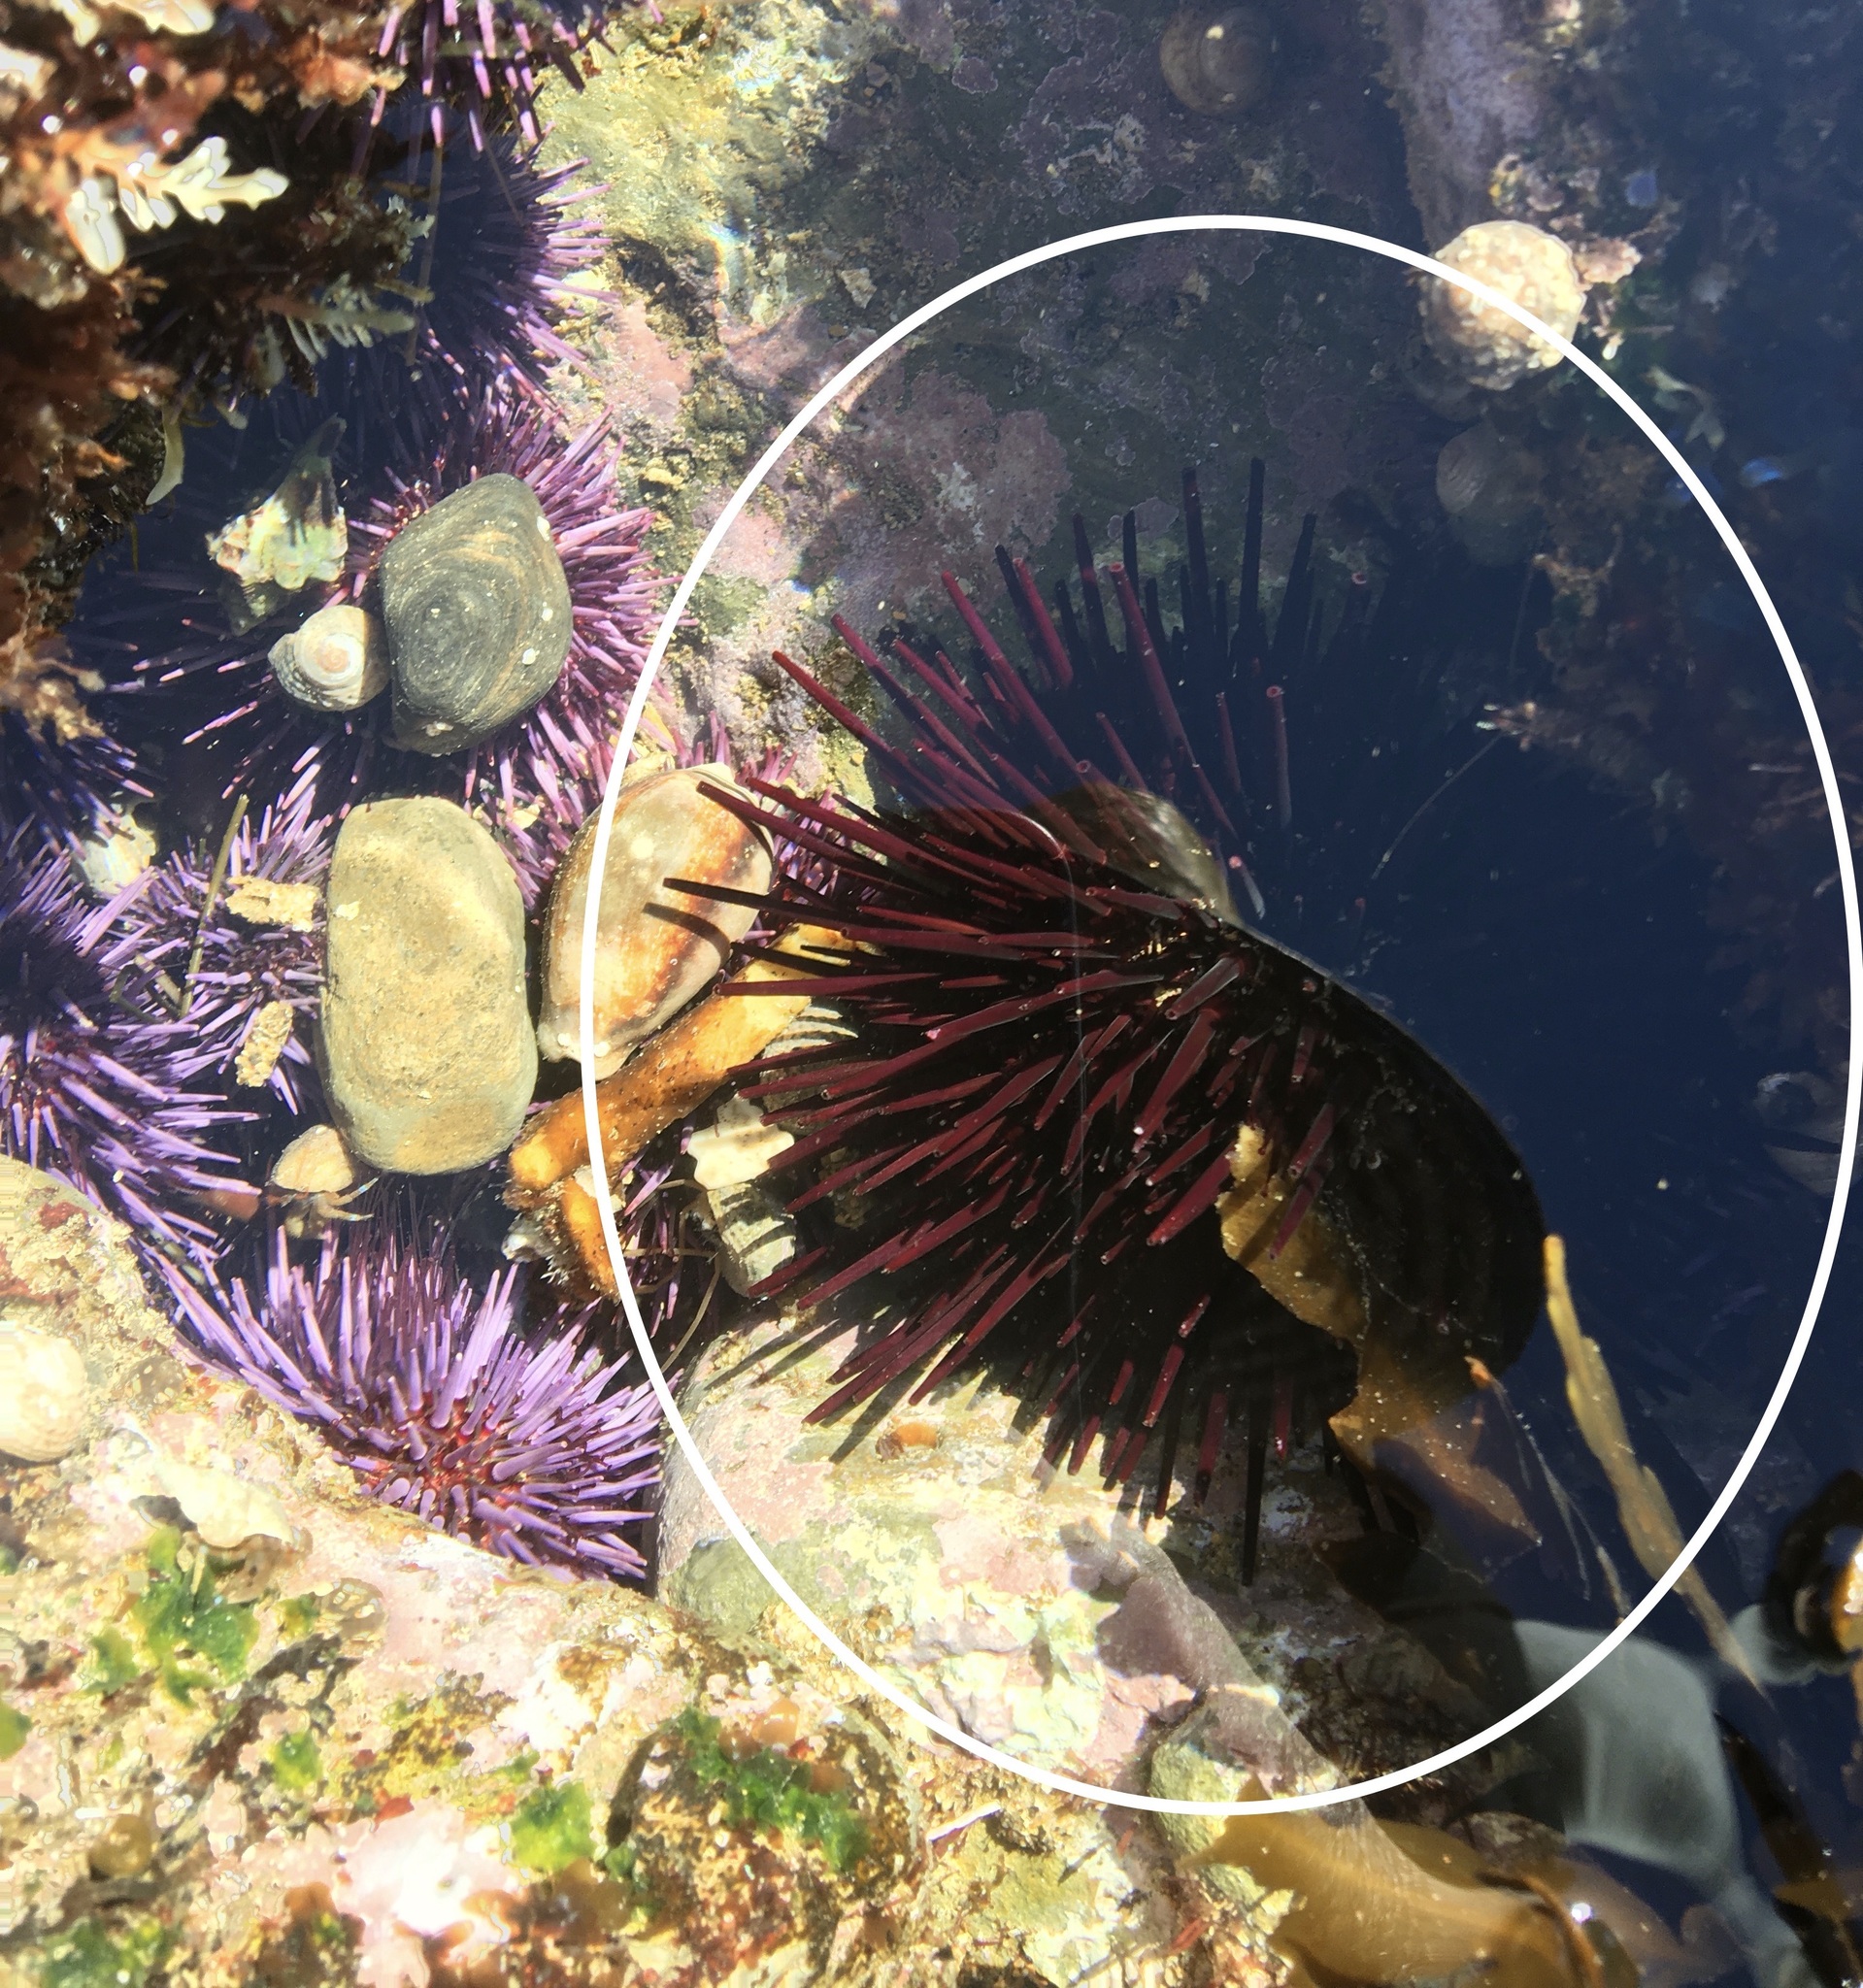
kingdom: Animalia
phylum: Echinodermata
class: Echinoidea
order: Camarodonta
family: Strongylocentrotidae
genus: Mesocentrotus
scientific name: Mesocentrotus franciscanus
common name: Red sea urchin
